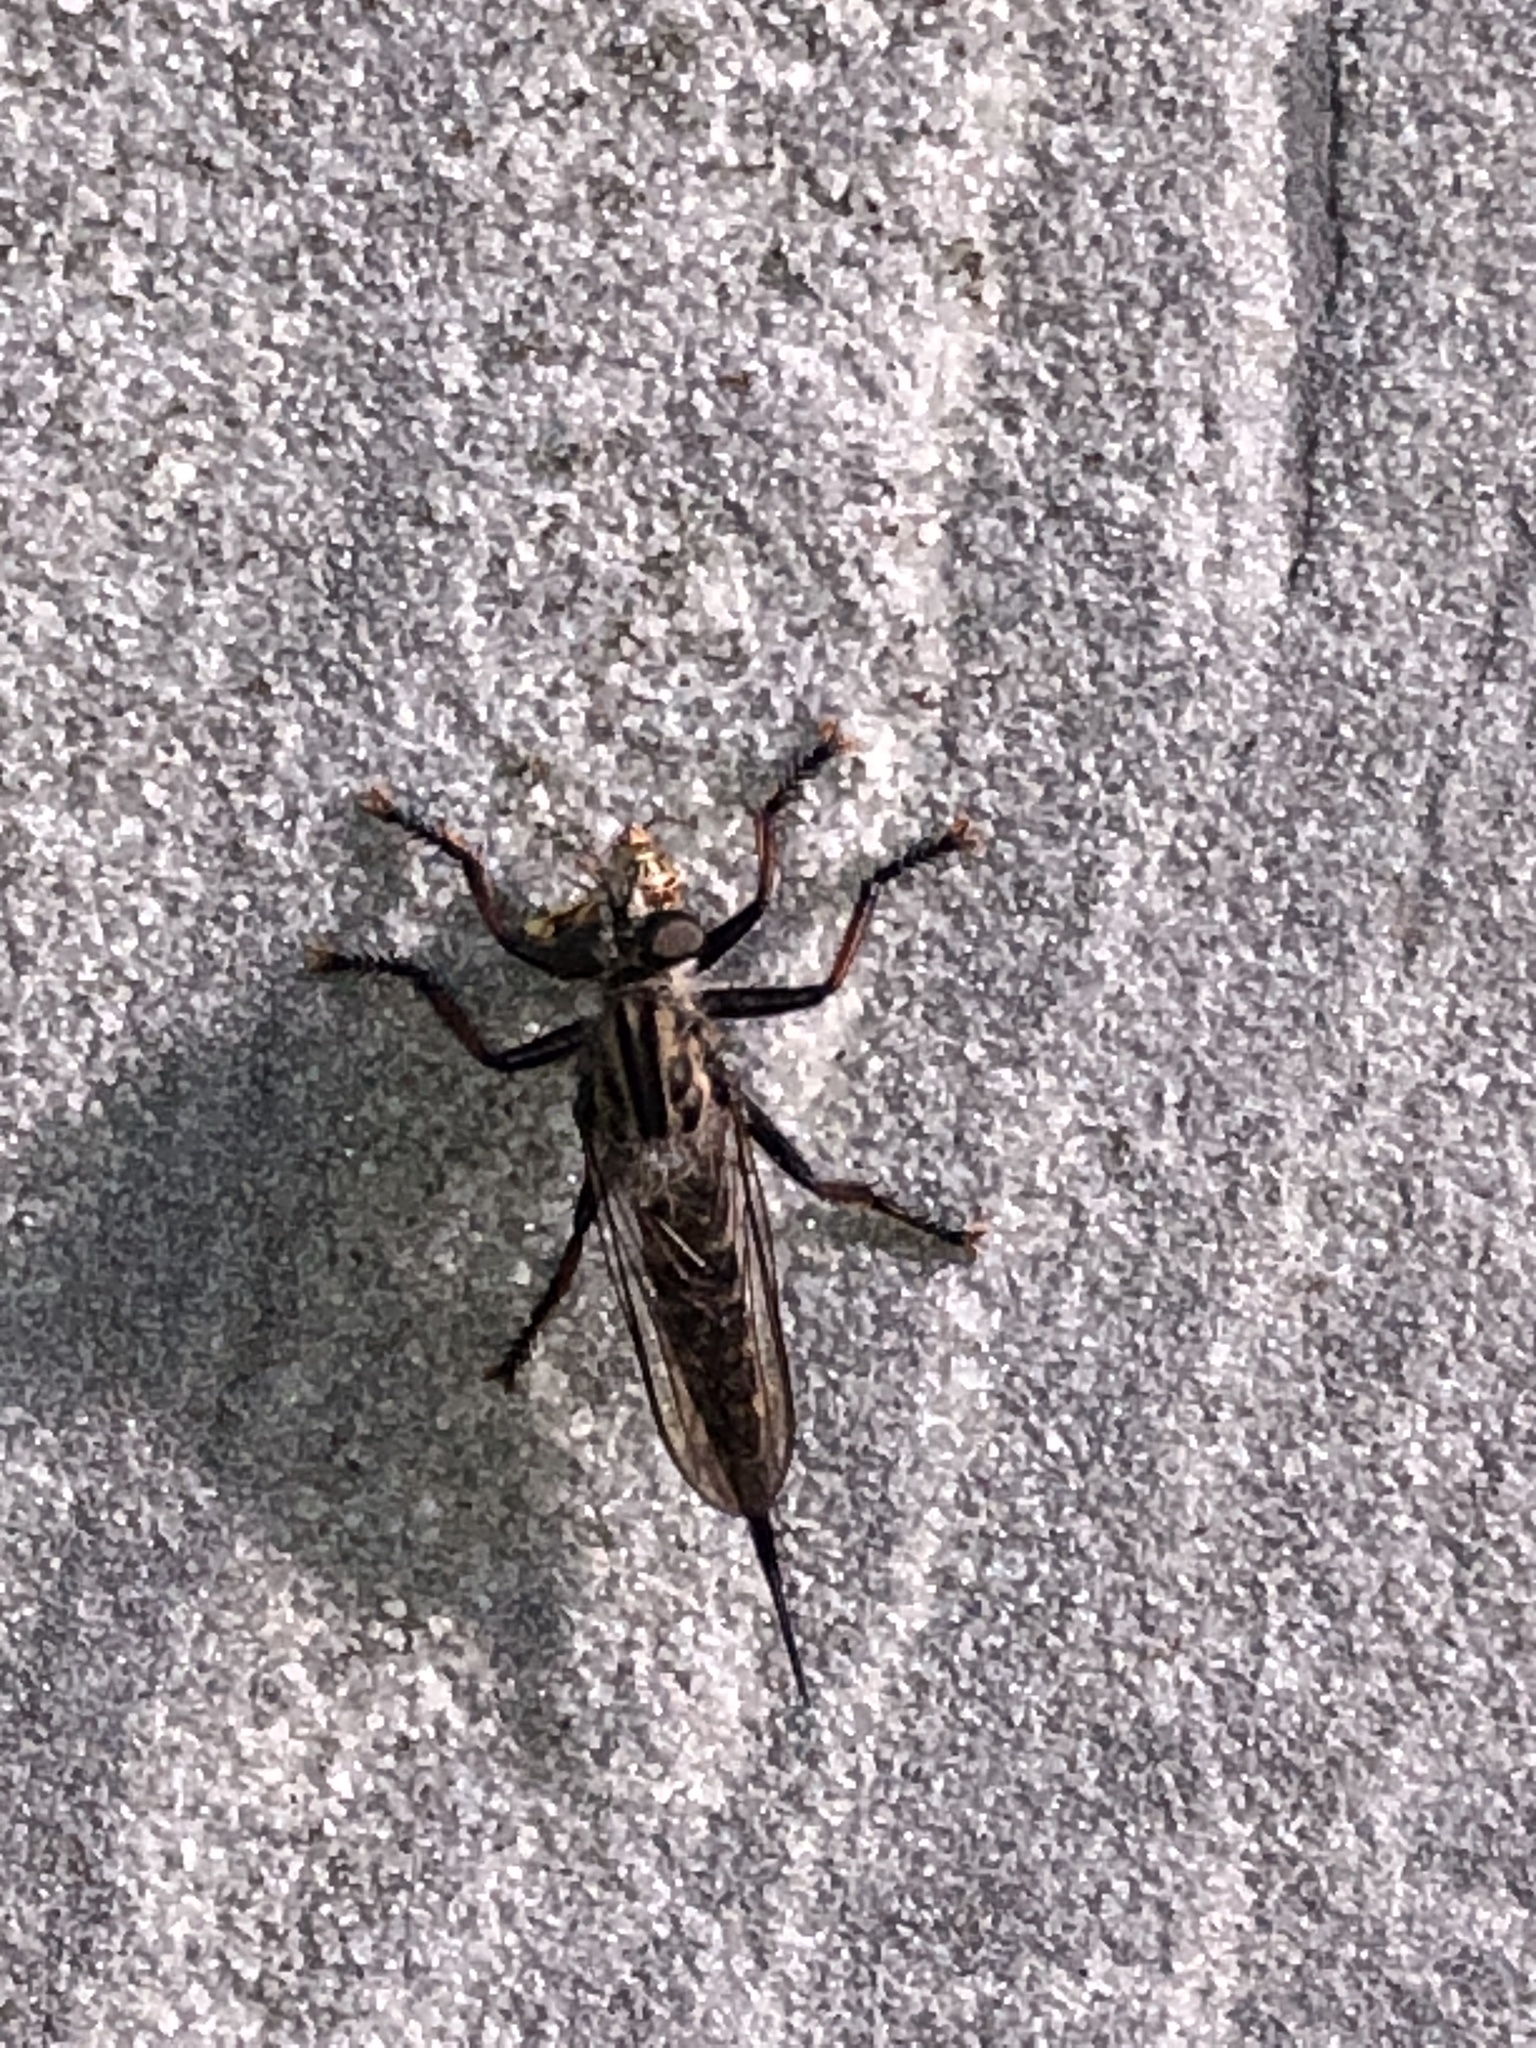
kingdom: Animalia
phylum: Arthropoda
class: Insecta
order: Diptera
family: Asilidae
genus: Efferia
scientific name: Efferia aestuans
